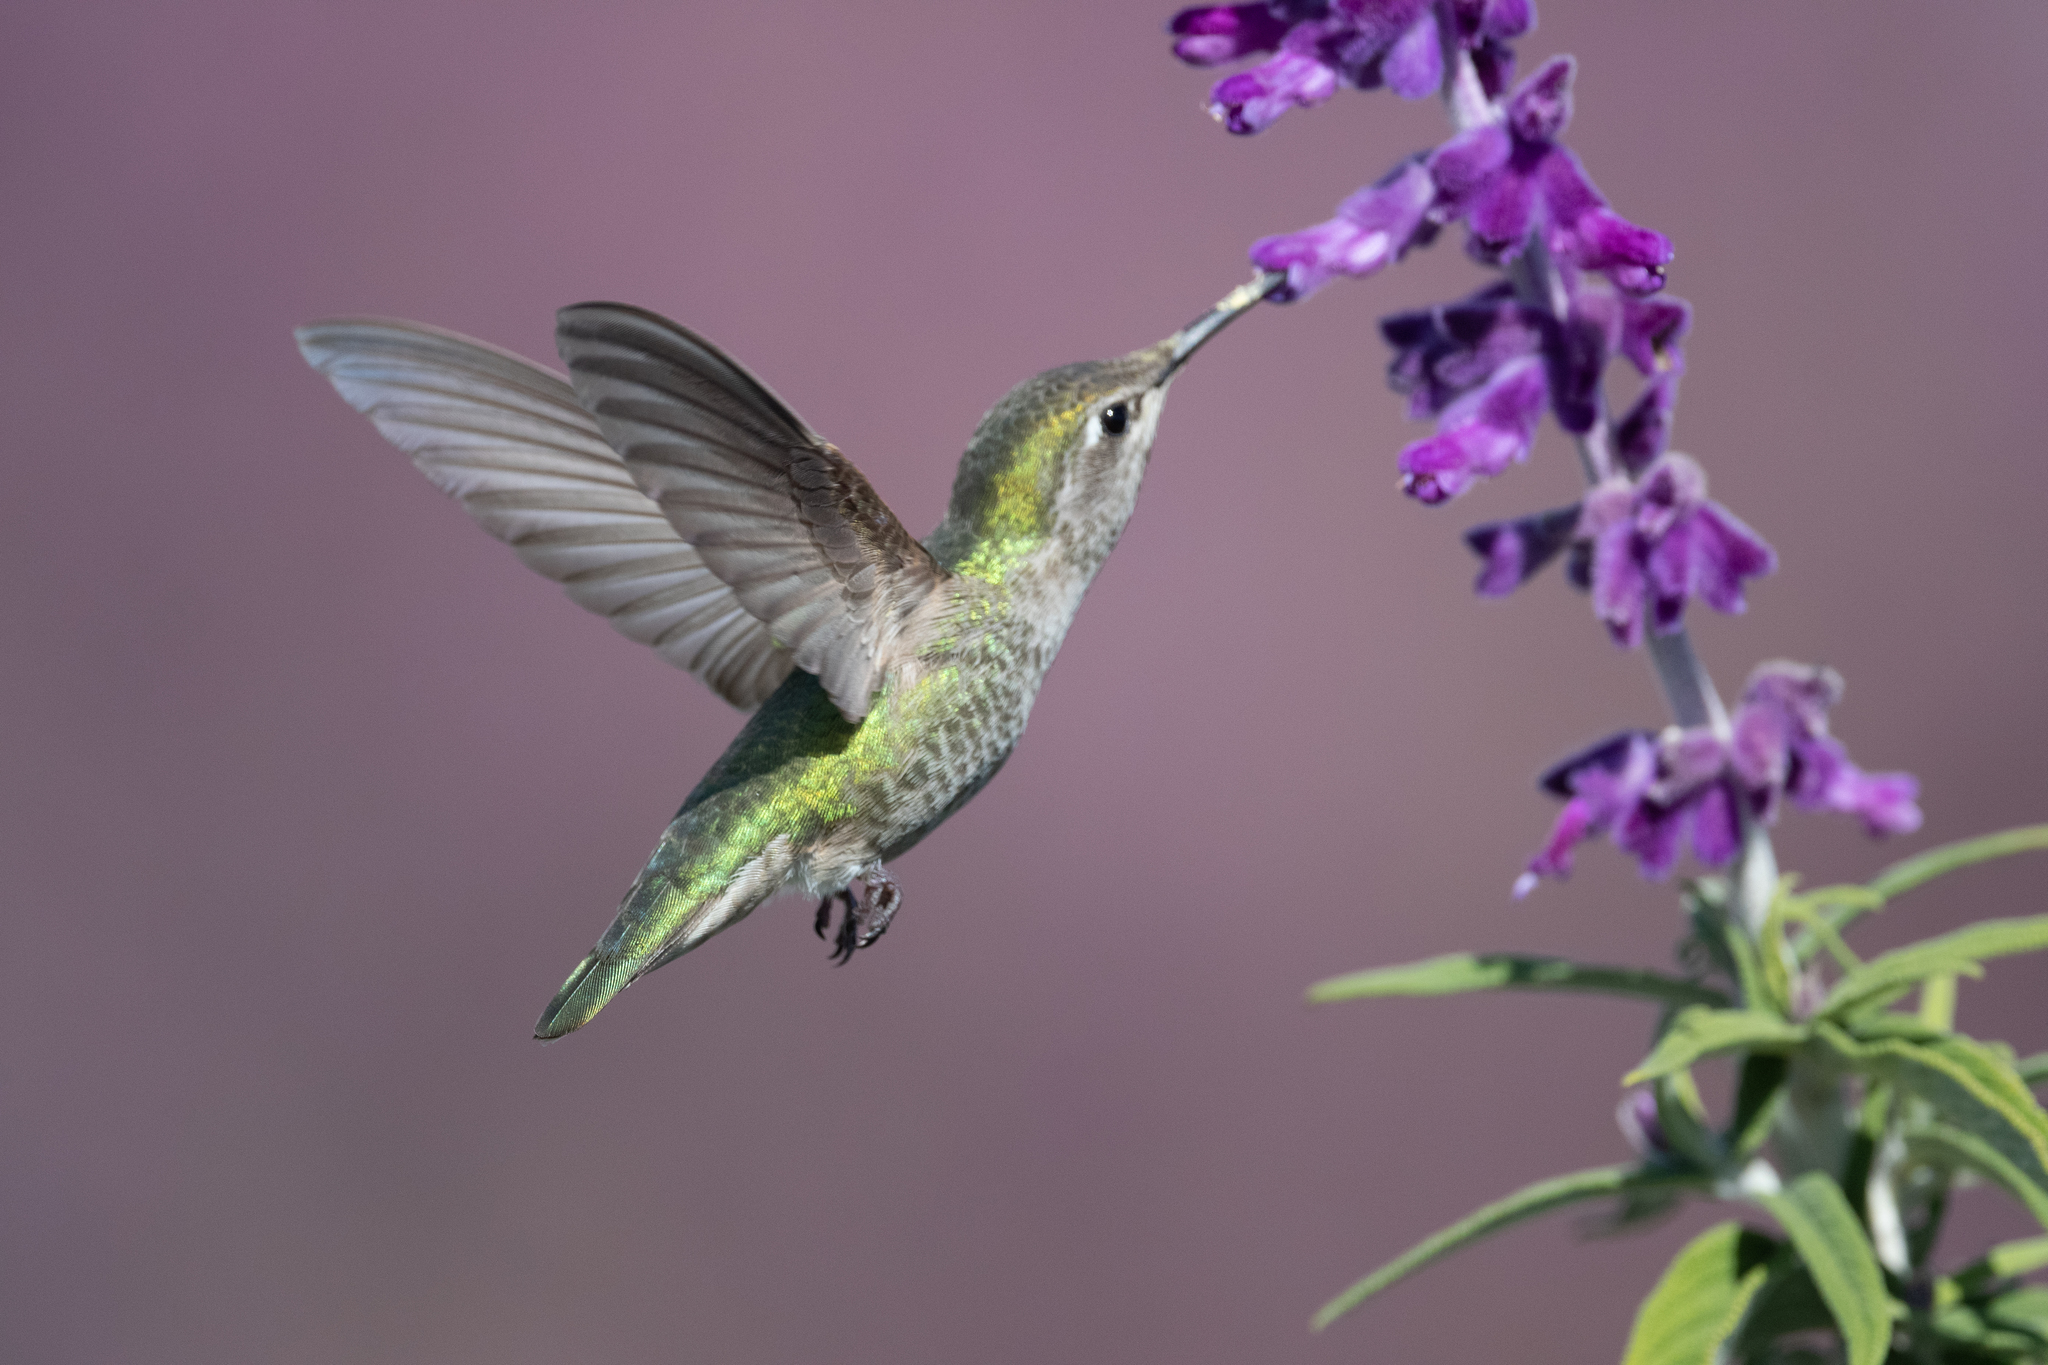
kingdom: Animalia
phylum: Chordata
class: Aves
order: Apodiformes
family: Trochilidae
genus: Calypte
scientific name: Calypte anna
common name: Anna's hummingbird
